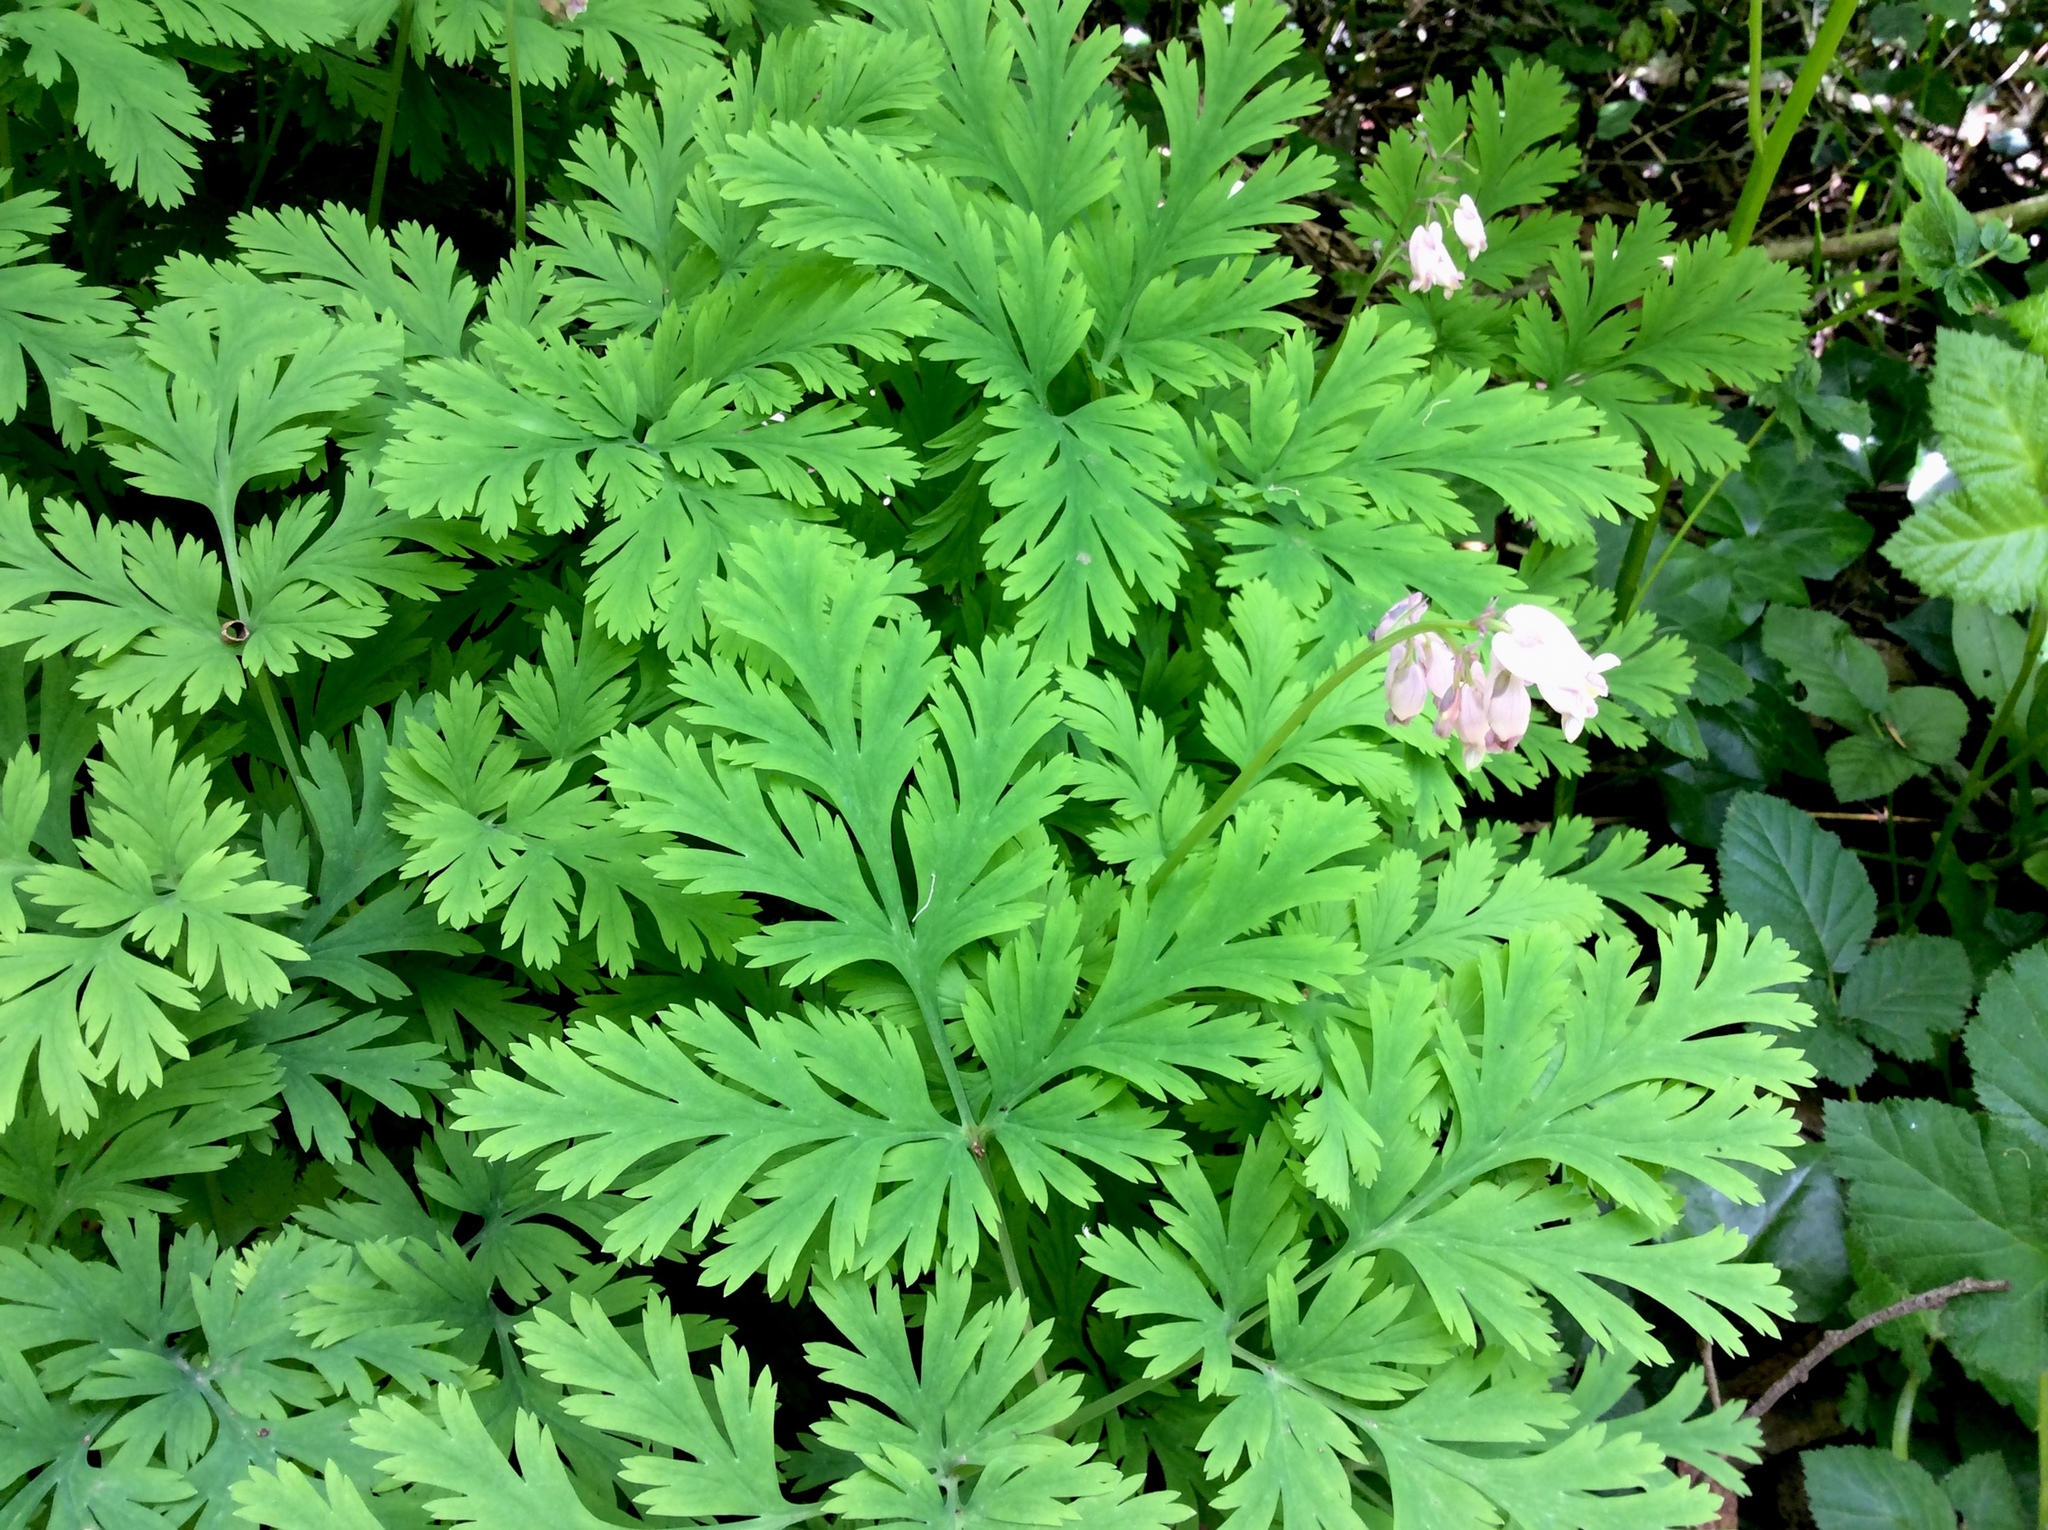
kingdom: Plantae
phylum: Tracheophyta
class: Magnoliopsida
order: Ranunculales
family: Papaveraceae
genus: Dicentra
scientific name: Dicentra formosa
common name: Bleeding-heart
